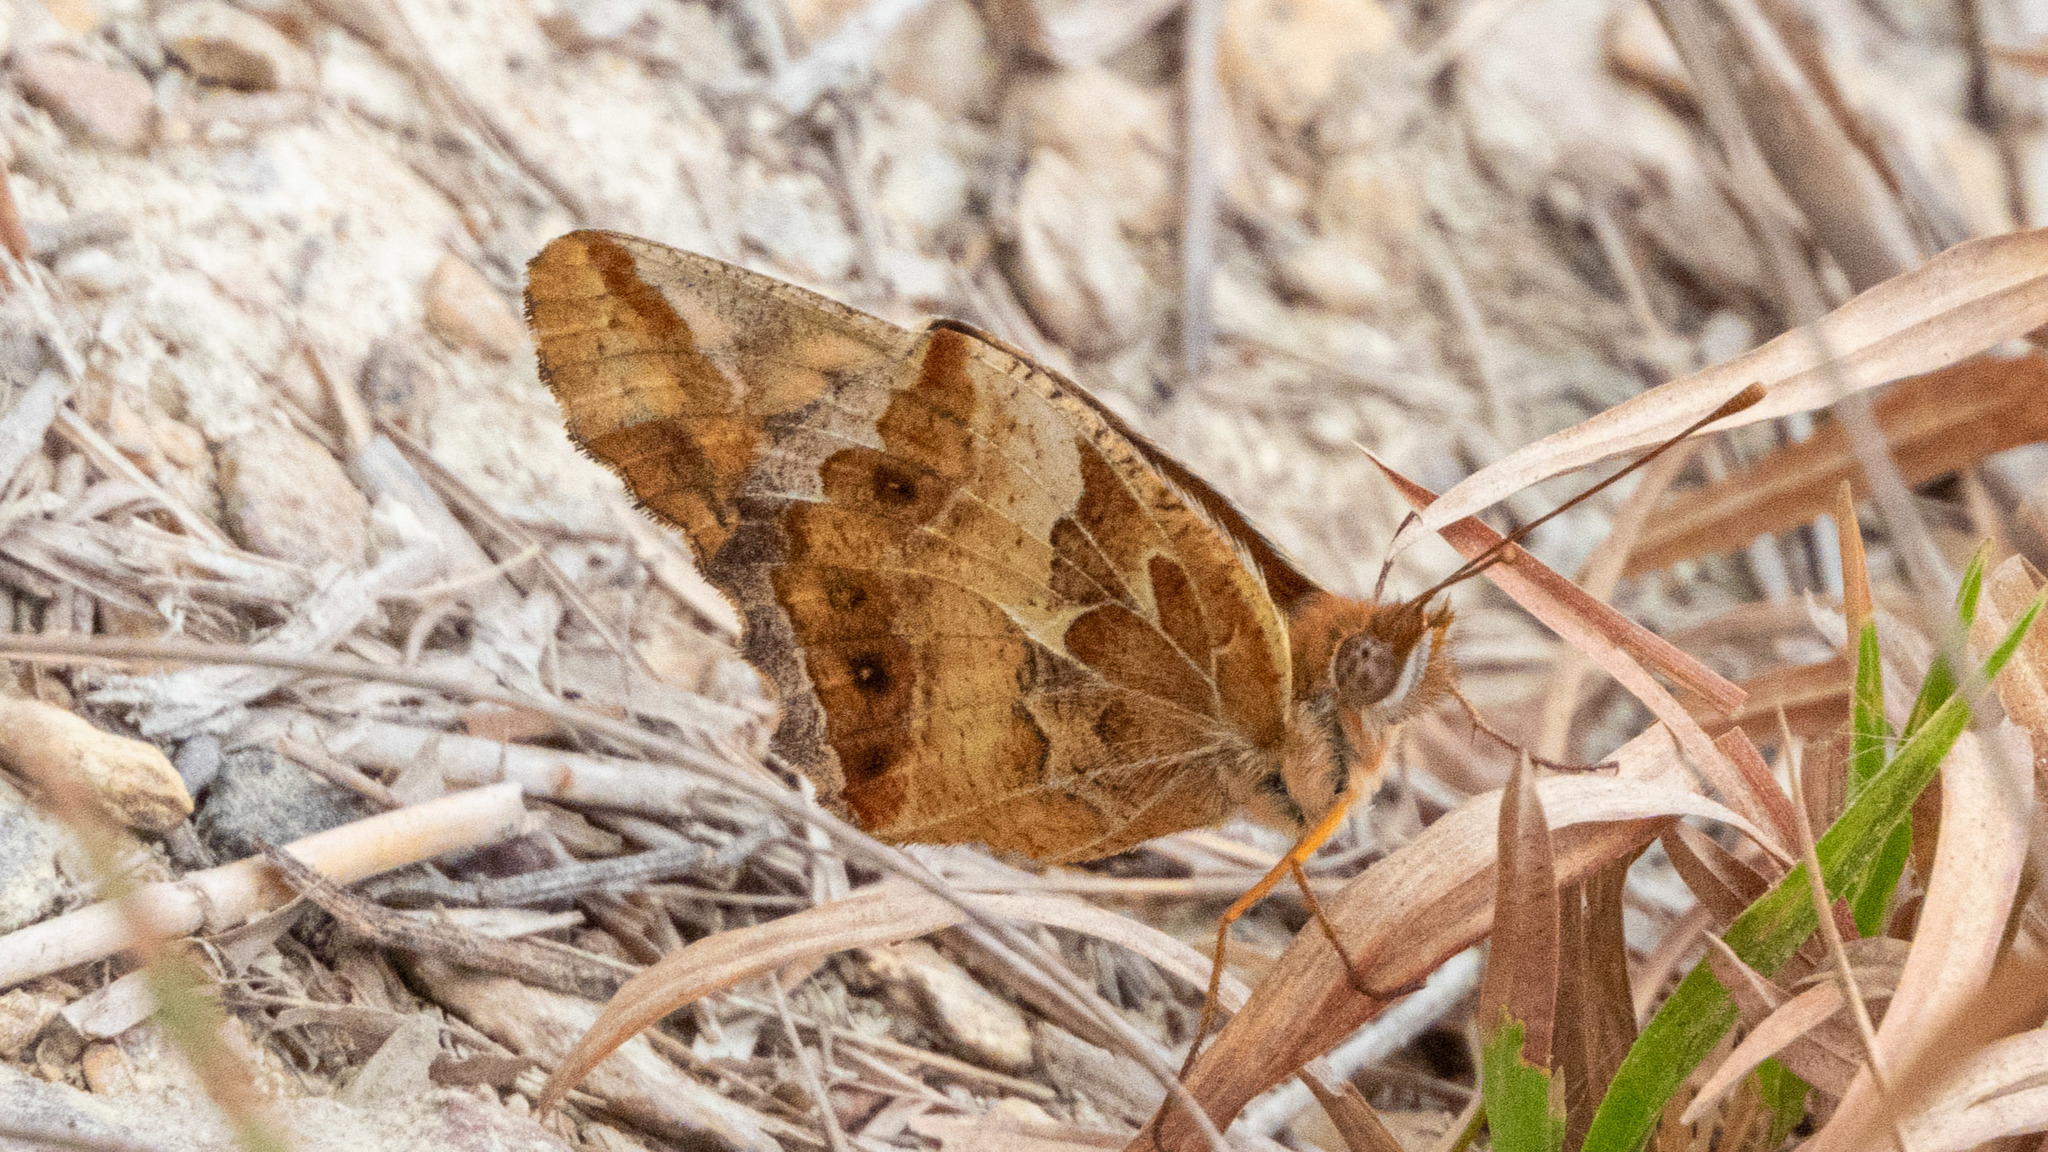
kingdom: Animalia
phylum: Arthropoda
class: Insecta
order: Lepidoptera
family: Nymphalidae
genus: Euptoieta
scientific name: Euptoieta claudia
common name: Variegated fritillary
